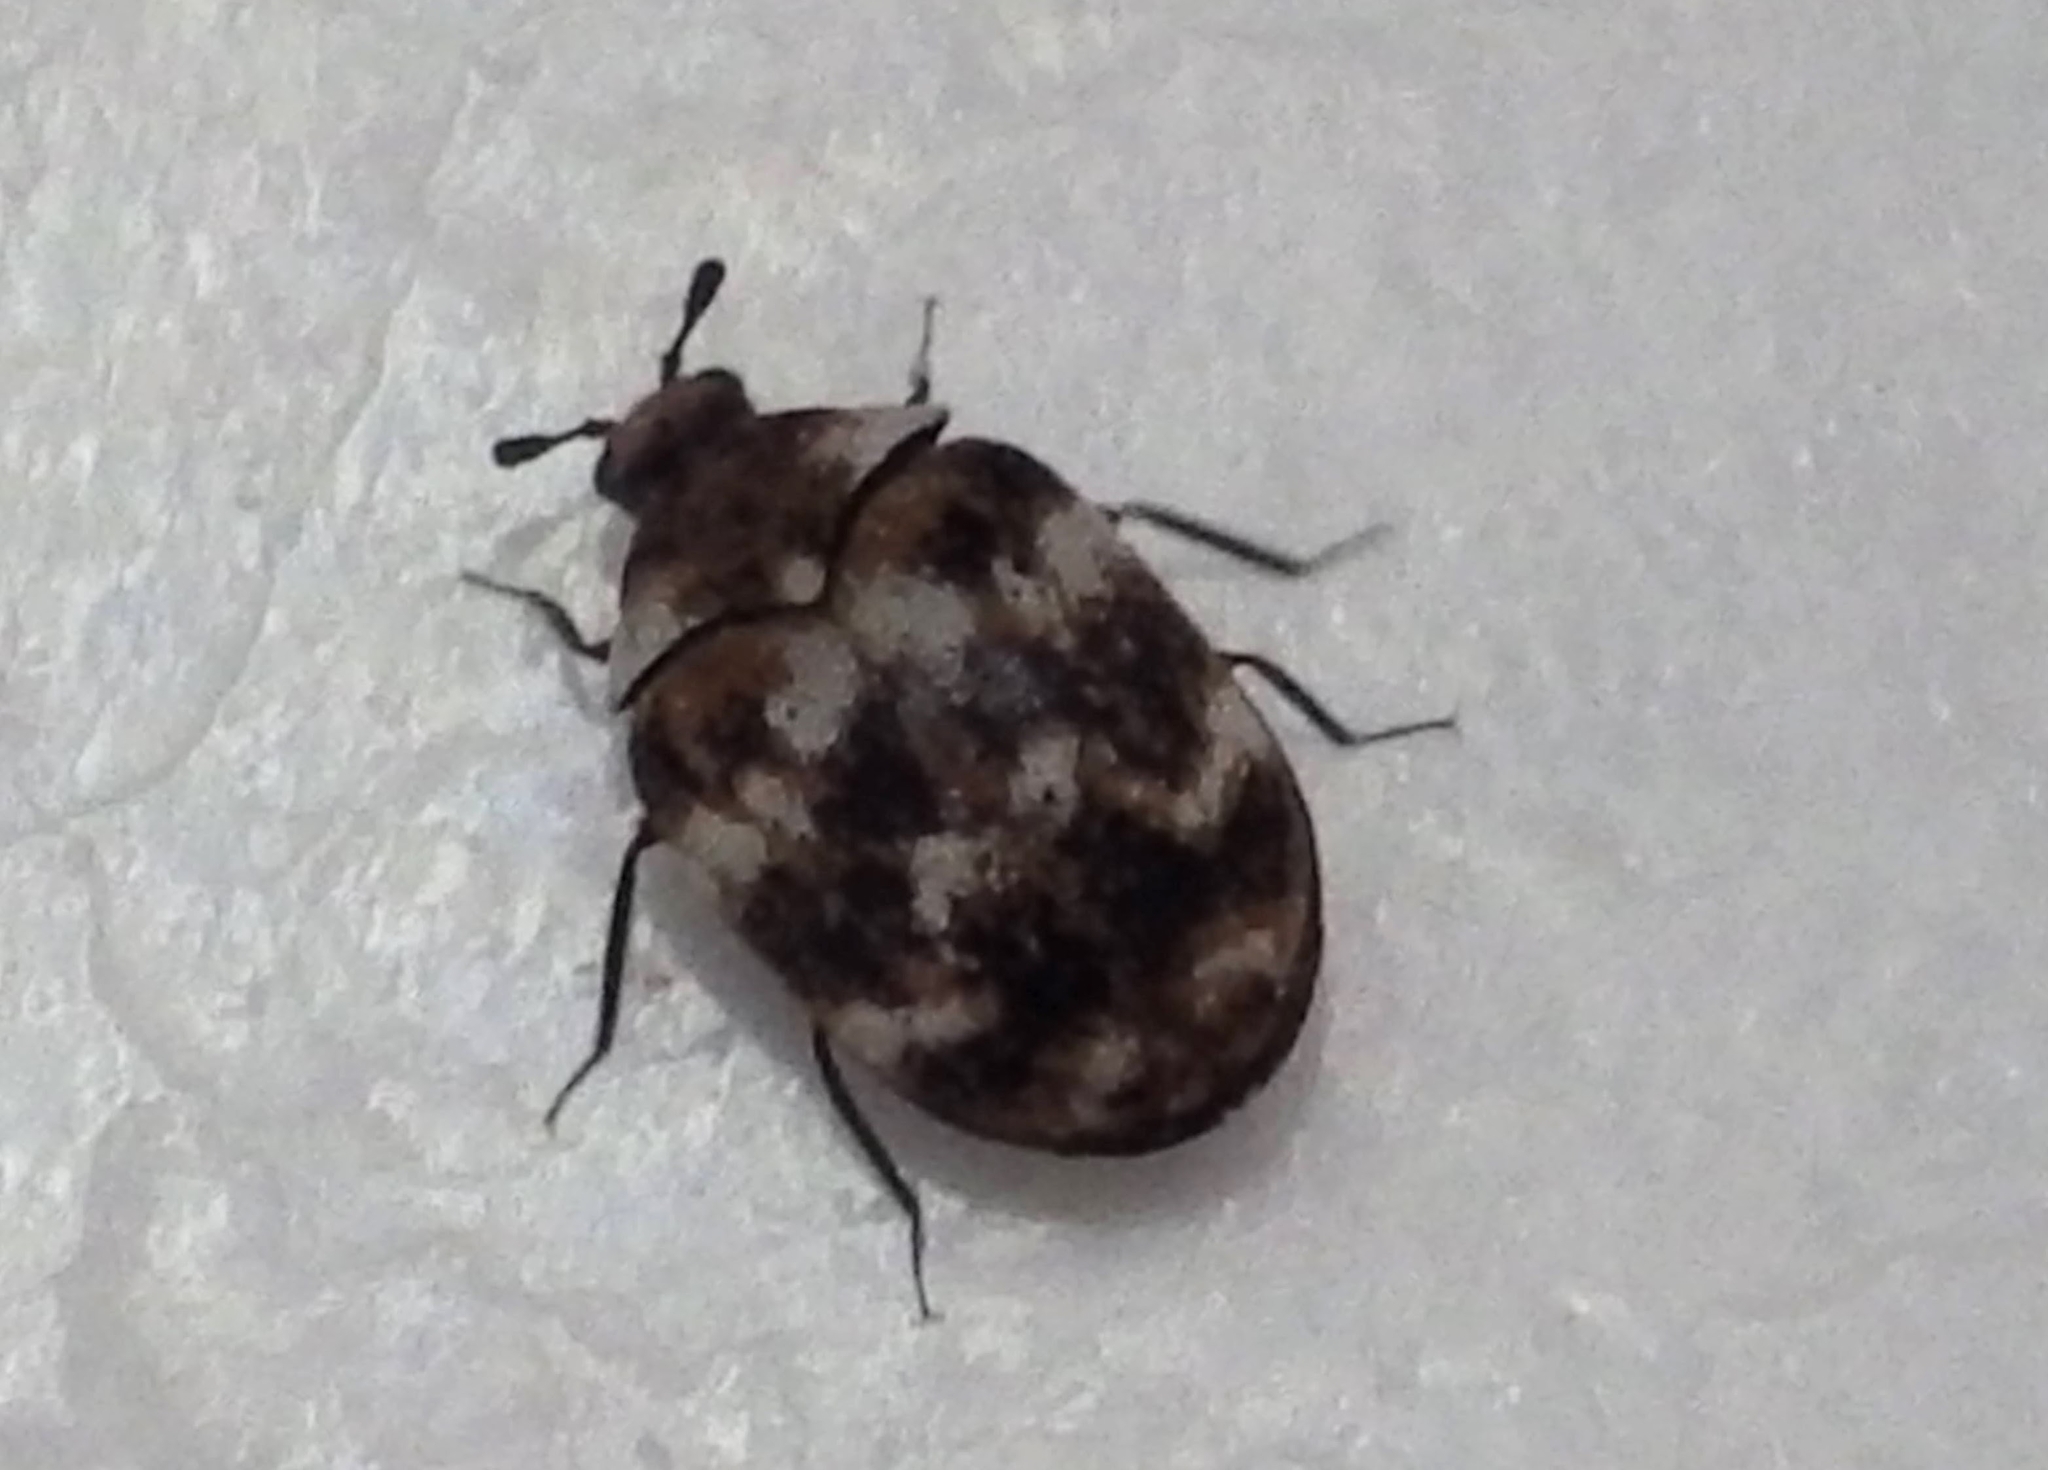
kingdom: Animalia
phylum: Arthropoda
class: Insecta
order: Coleoptera
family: Dermestidae
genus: Anthrenus
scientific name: Anthrenus verbasci
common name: Varied carpet beetle
